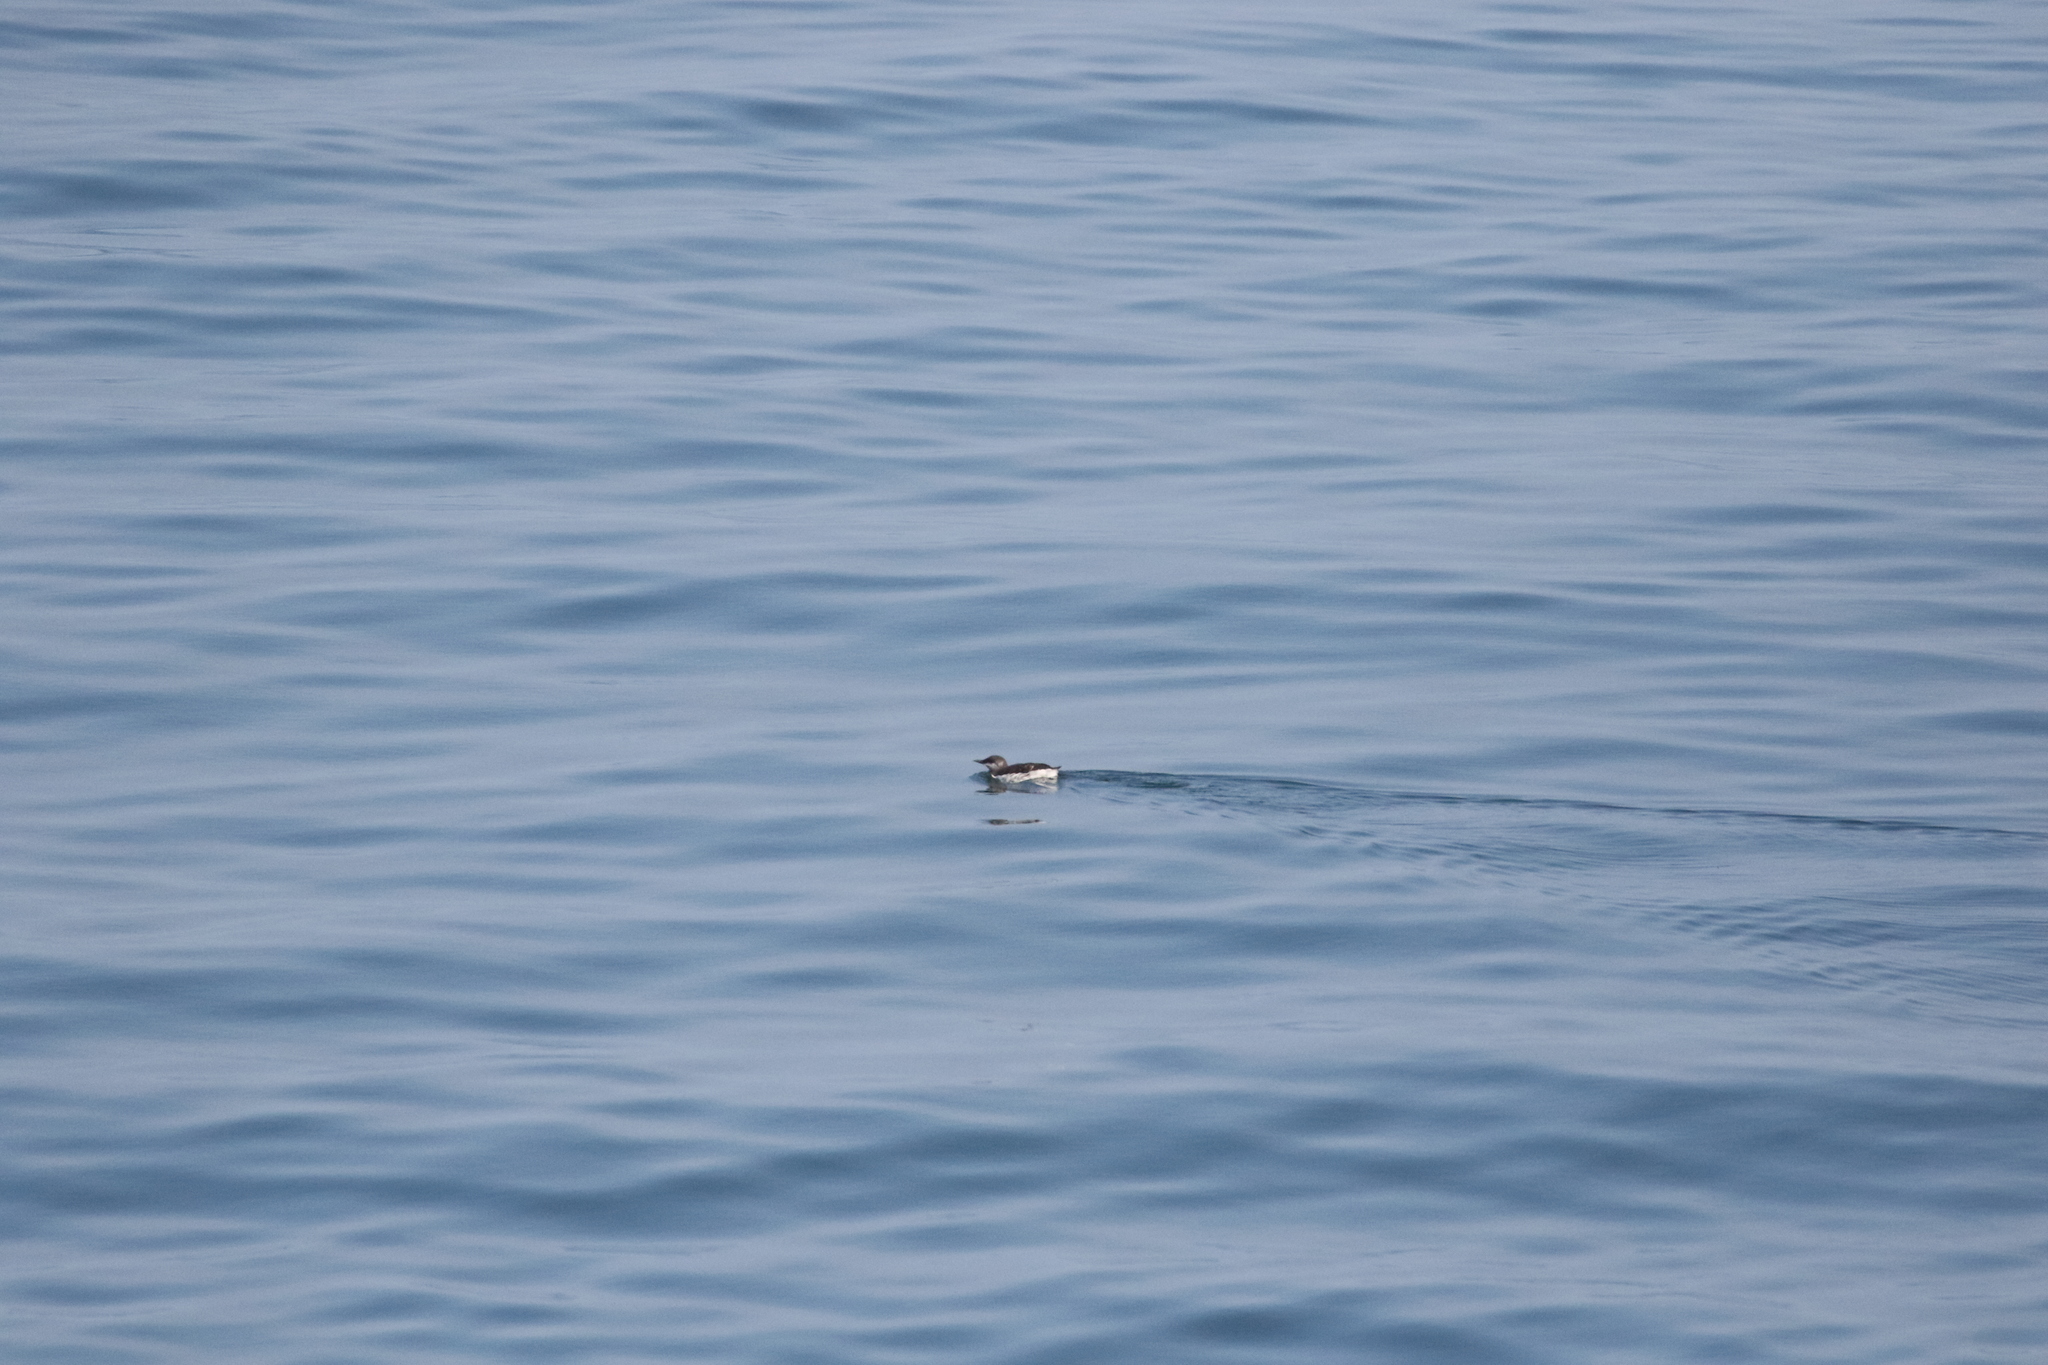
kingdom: Animalia
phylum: Chordata
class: Aves
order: Charadriiformes
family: Alcidae
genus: Cepphus
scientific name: Cepphus grylle
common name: Black guillemot
